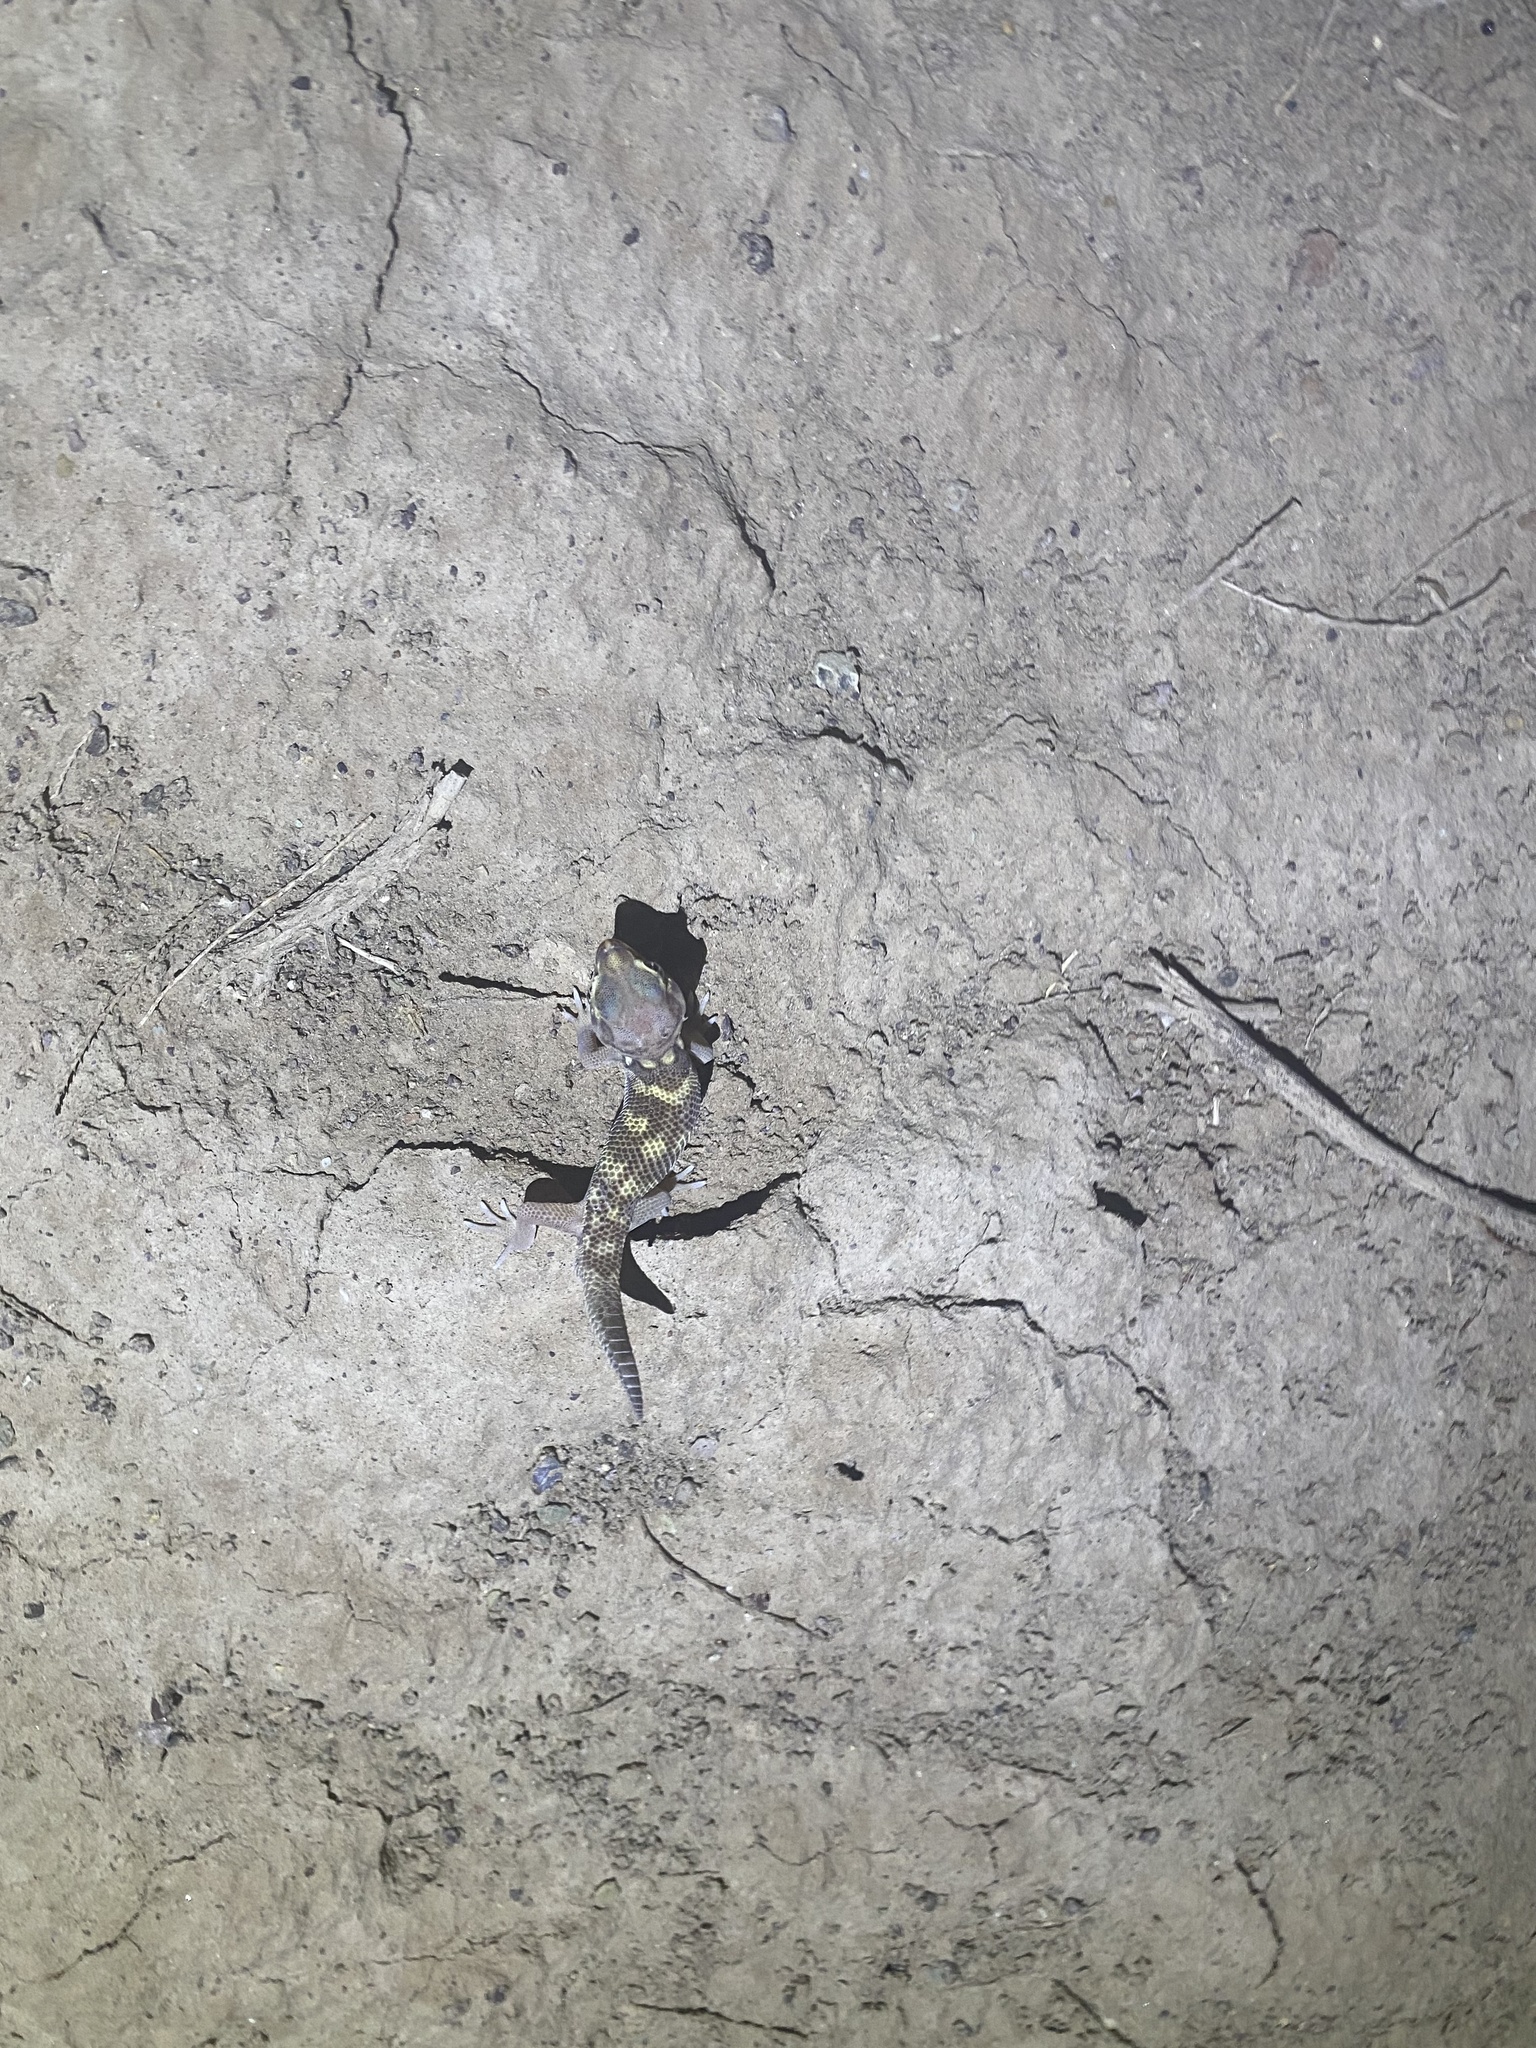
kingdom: Animalia
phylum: Chordata
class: Squamata
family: Sphaerodactylidae
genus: Teratoscincus
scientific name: Teratoscincus bedriagai
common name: Bedriaga's plate-tailed gecko
